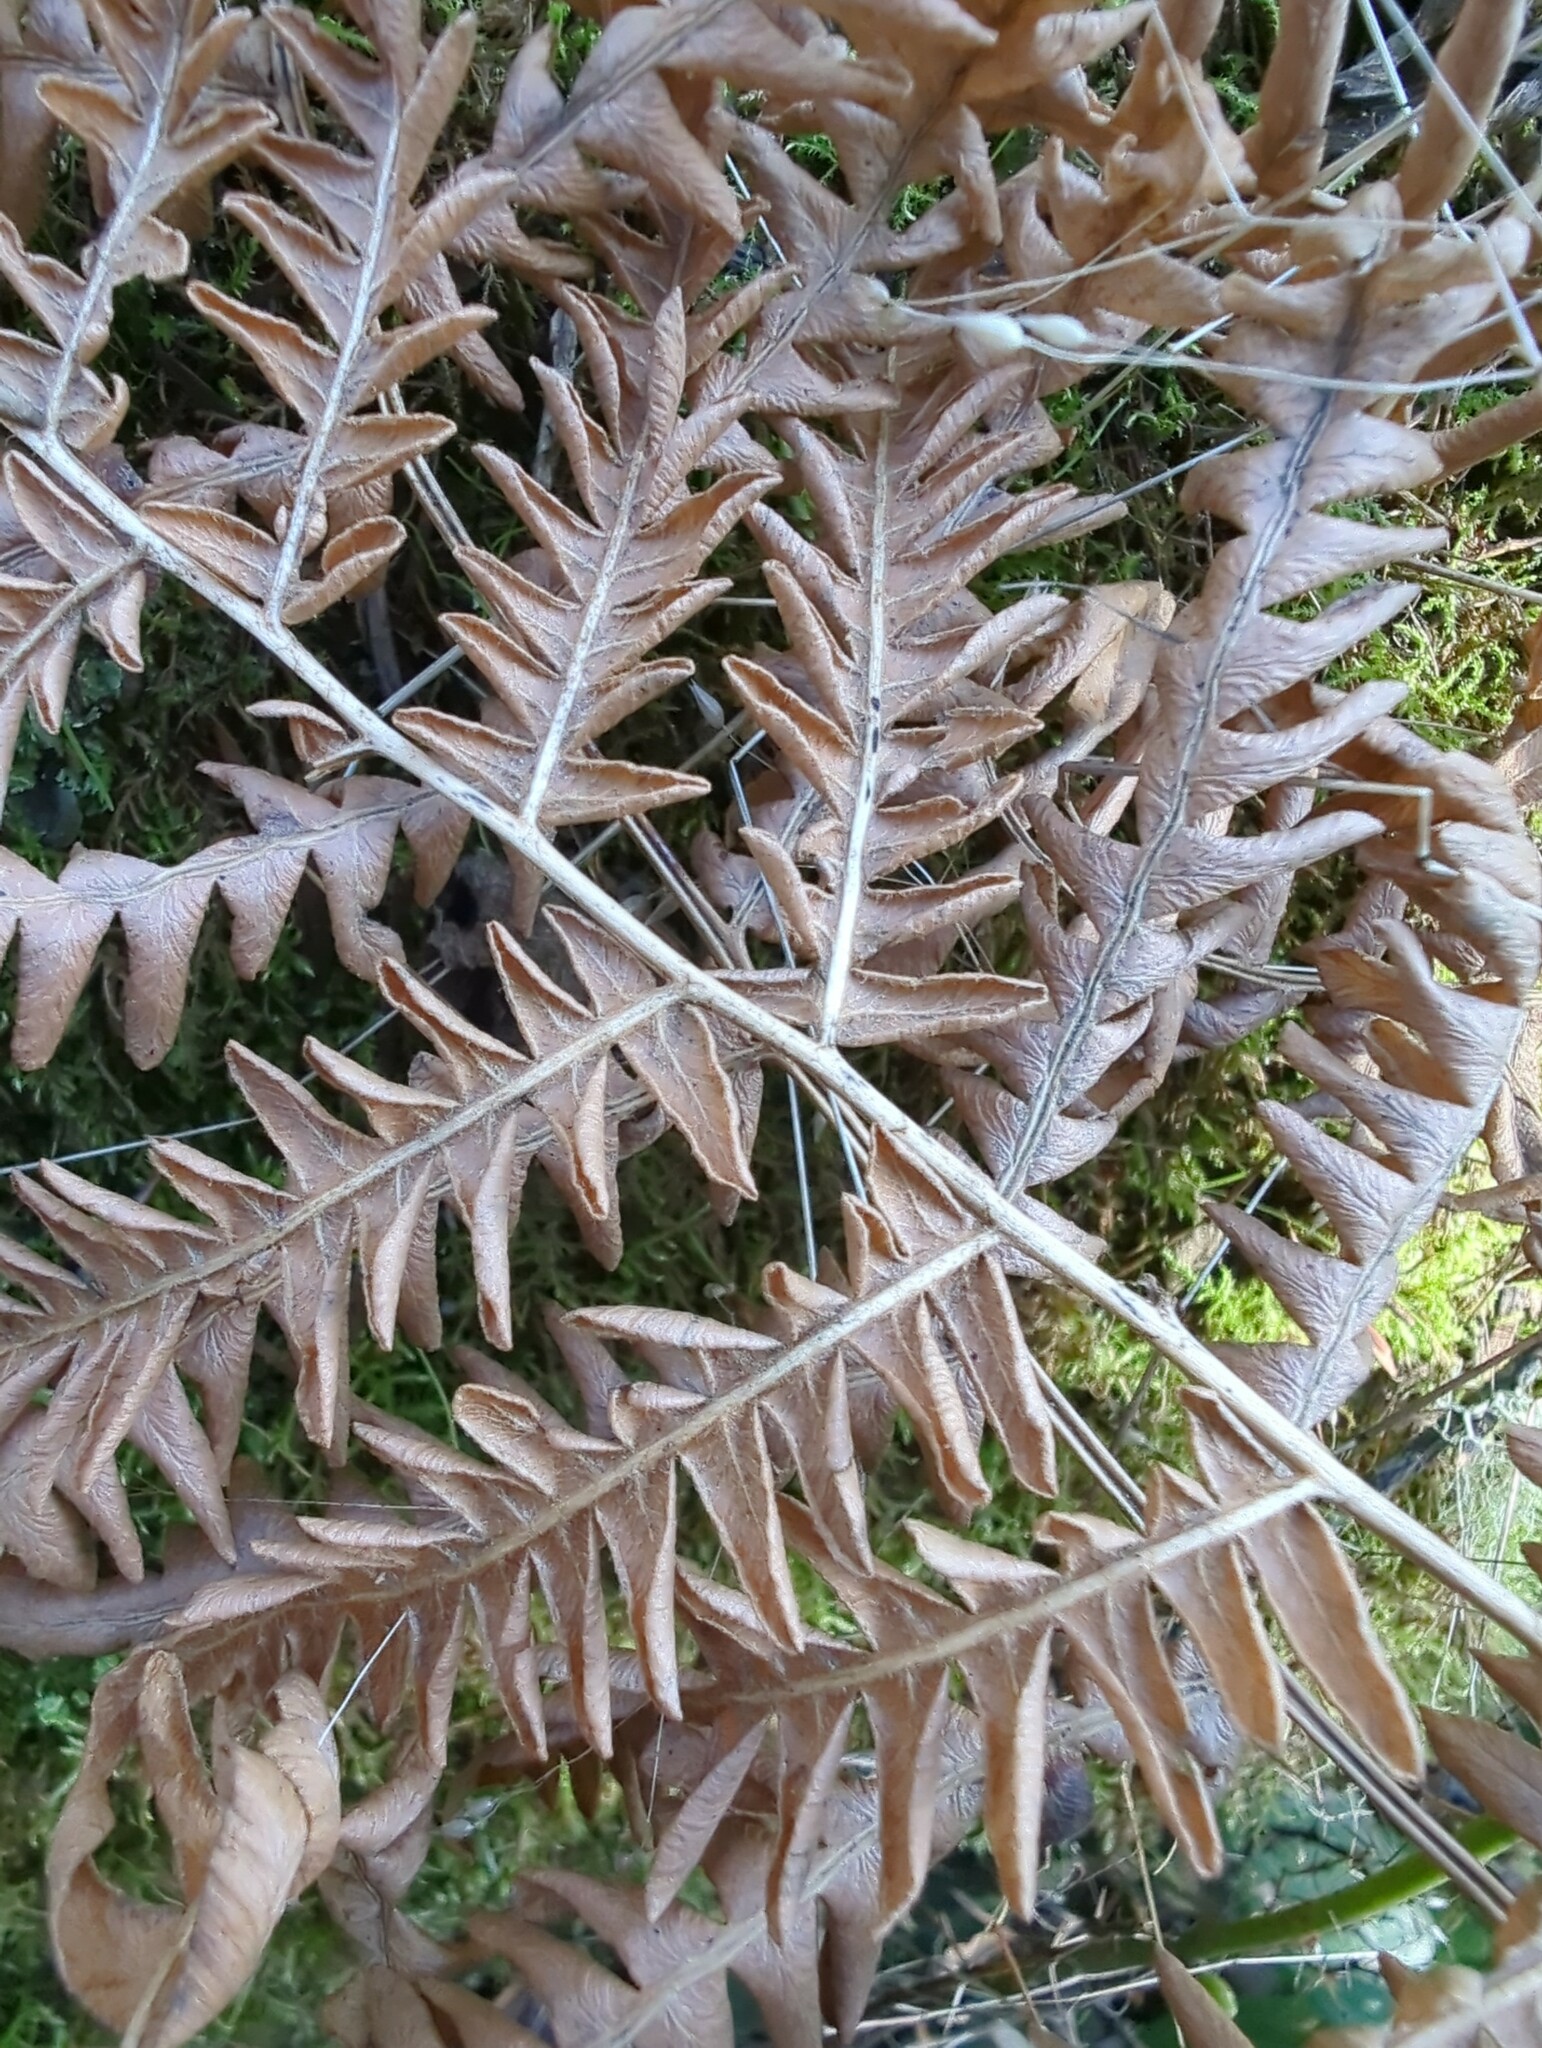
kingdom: Plantae
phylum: Tracheophyta
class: Polypodiopsida
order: Polypodiales
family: Dennstaedtiaceae
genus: Pteridium
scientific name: Pteridium aquilinum
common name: Bracken
